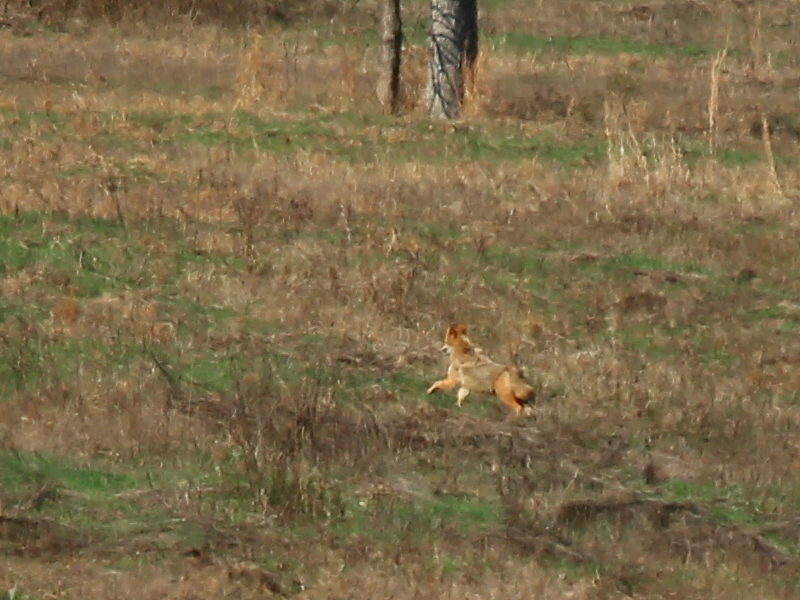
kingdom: Animalia
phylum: Chordata
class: Mammalia
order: Carnivora
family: Canidae
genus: Canis
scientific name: Canis latrans
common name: Coyote
